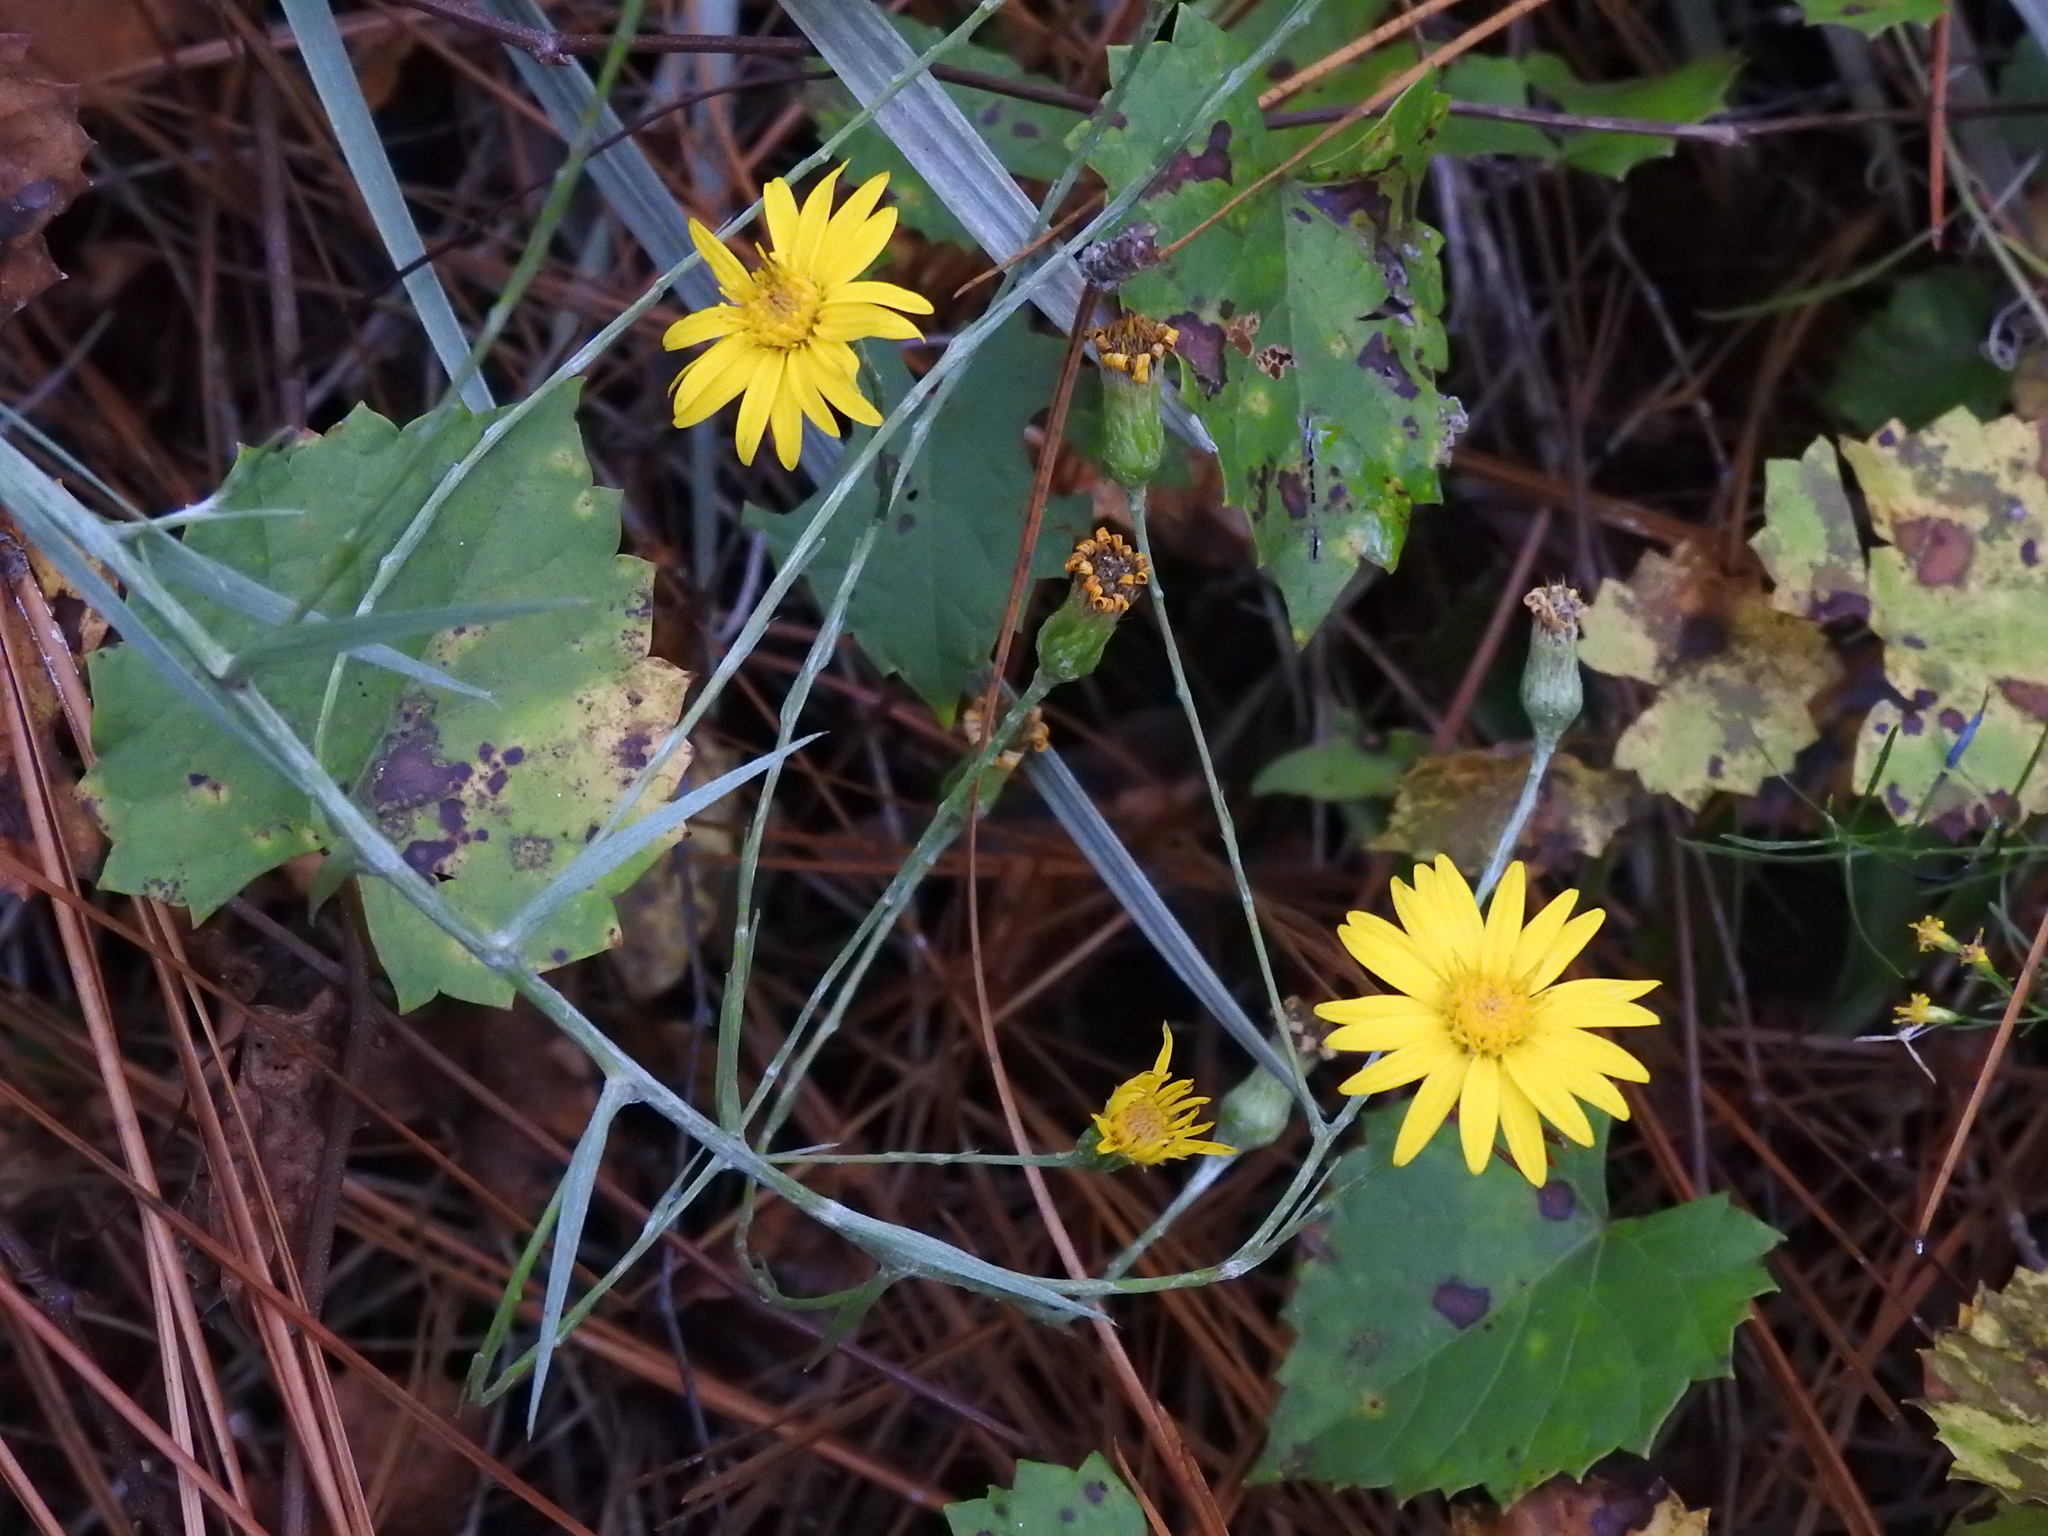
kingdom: Plantae
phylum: Tracheophyta
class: Magnoliopsida
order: Asterales
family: Asteraceae
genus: Pityopsis
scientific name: Pityopsis tracyi
